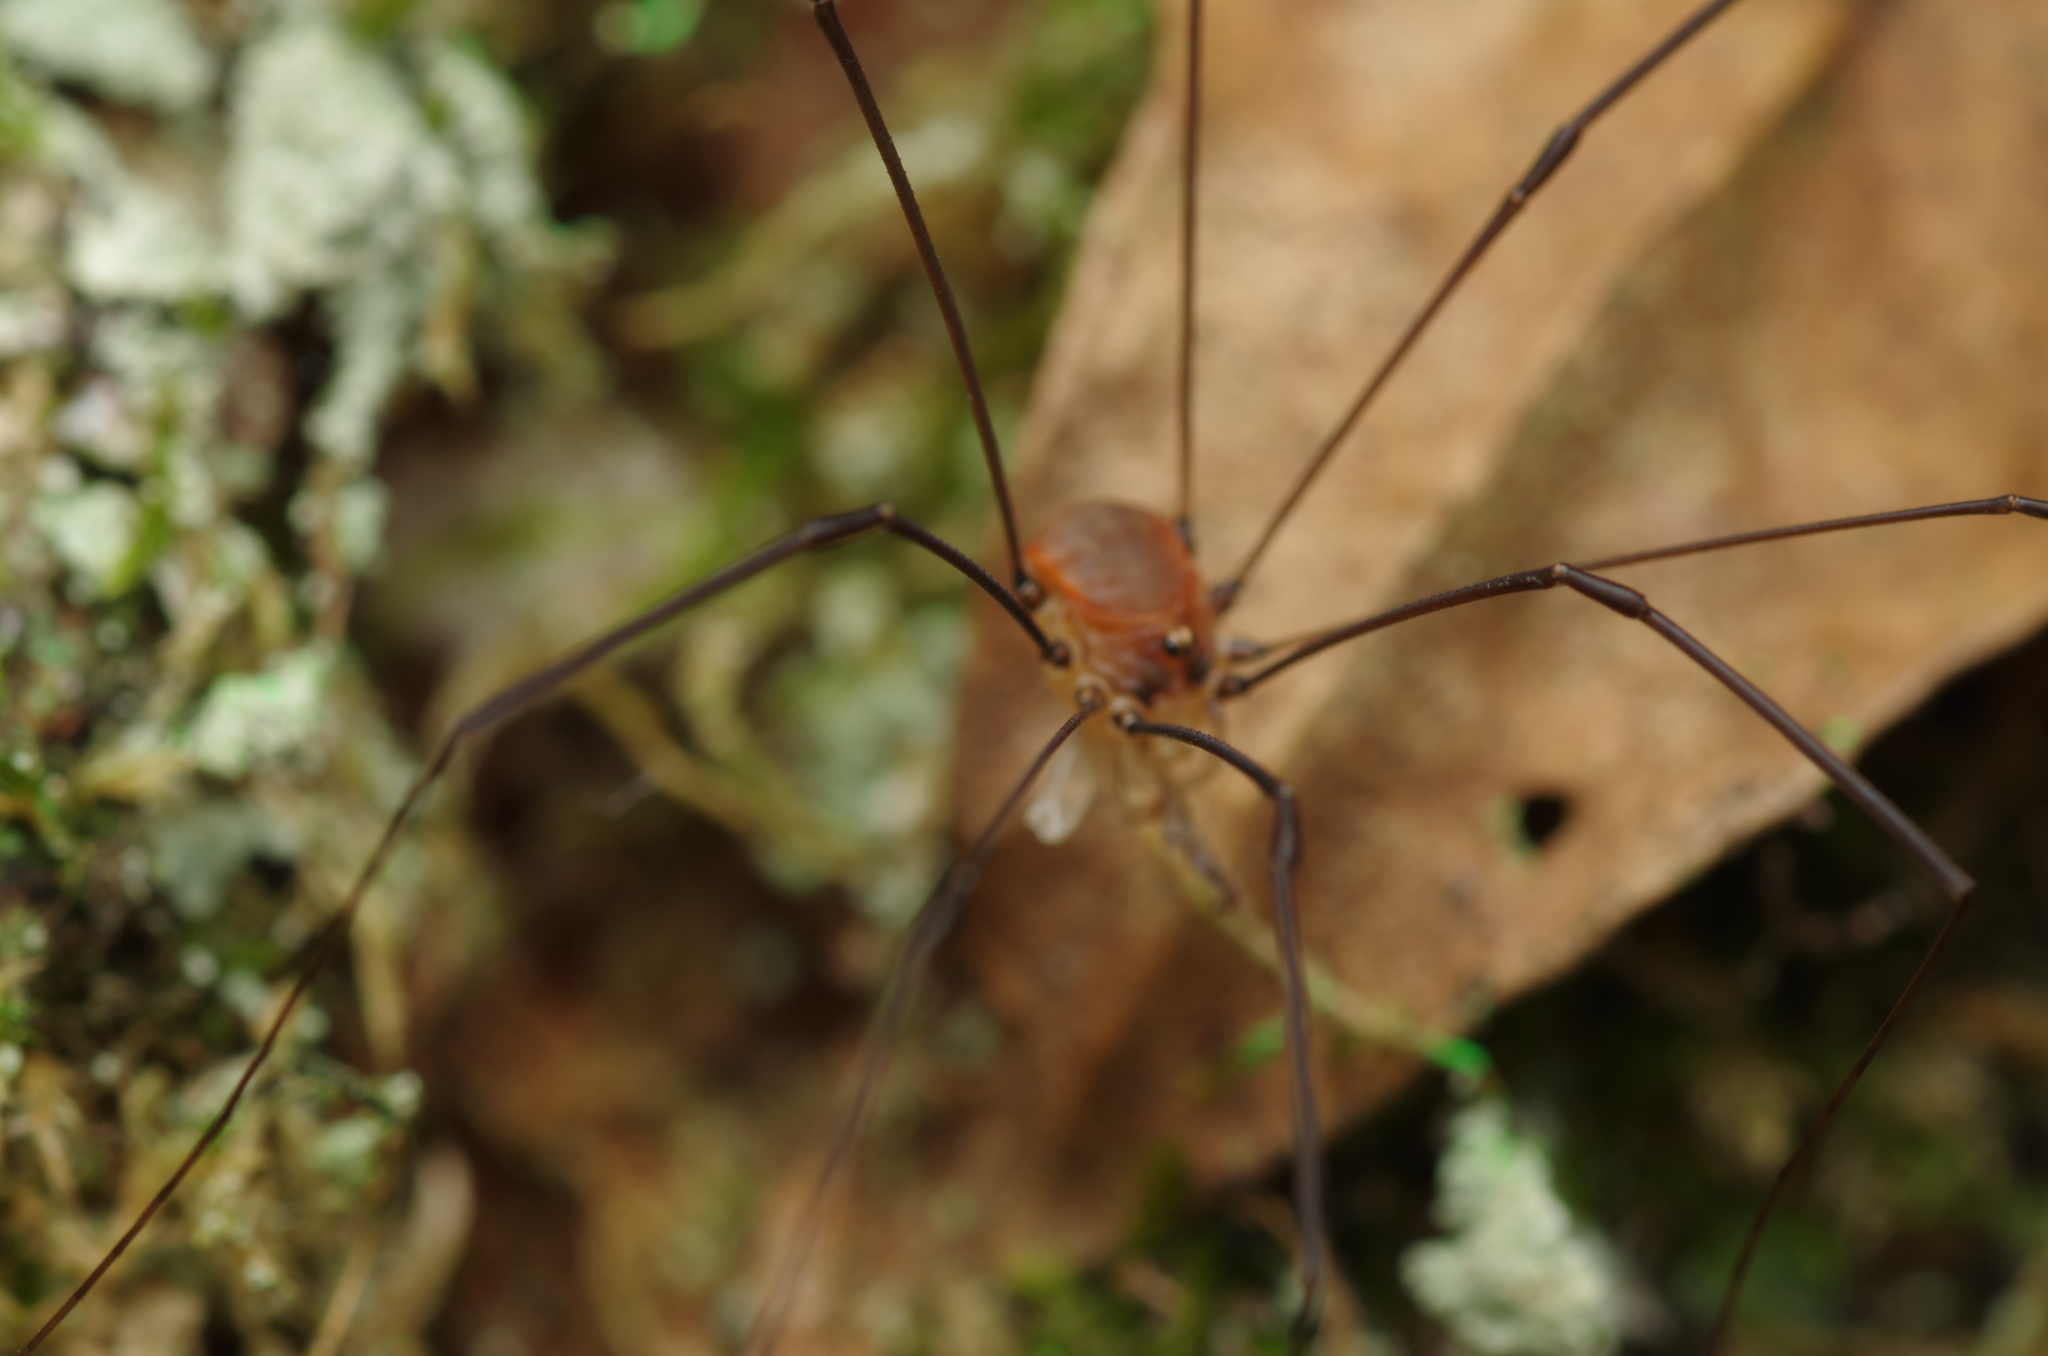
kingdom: Animalia
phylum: Arthropoda
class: Arachnida
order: Opiliones
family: Sclerosomatidae
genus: Leiobunum
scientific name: Leiobunum blackwalli
